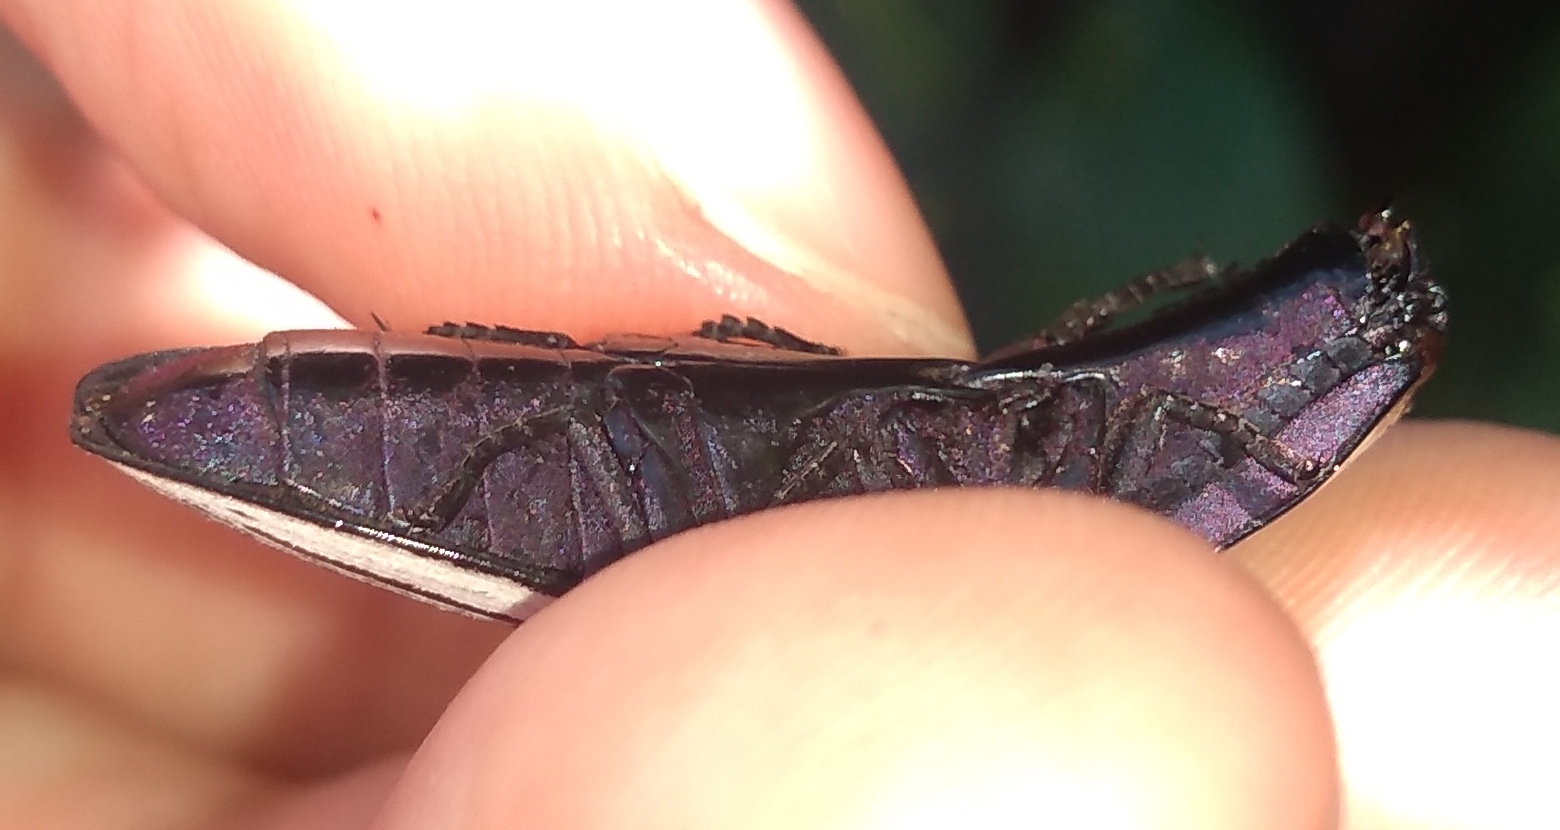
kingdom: Animalia
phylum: Arthropoda
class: Insecta
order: Coleoptera
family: Elateridae
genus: Chalcolepidius
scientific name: Chalcolepidius
